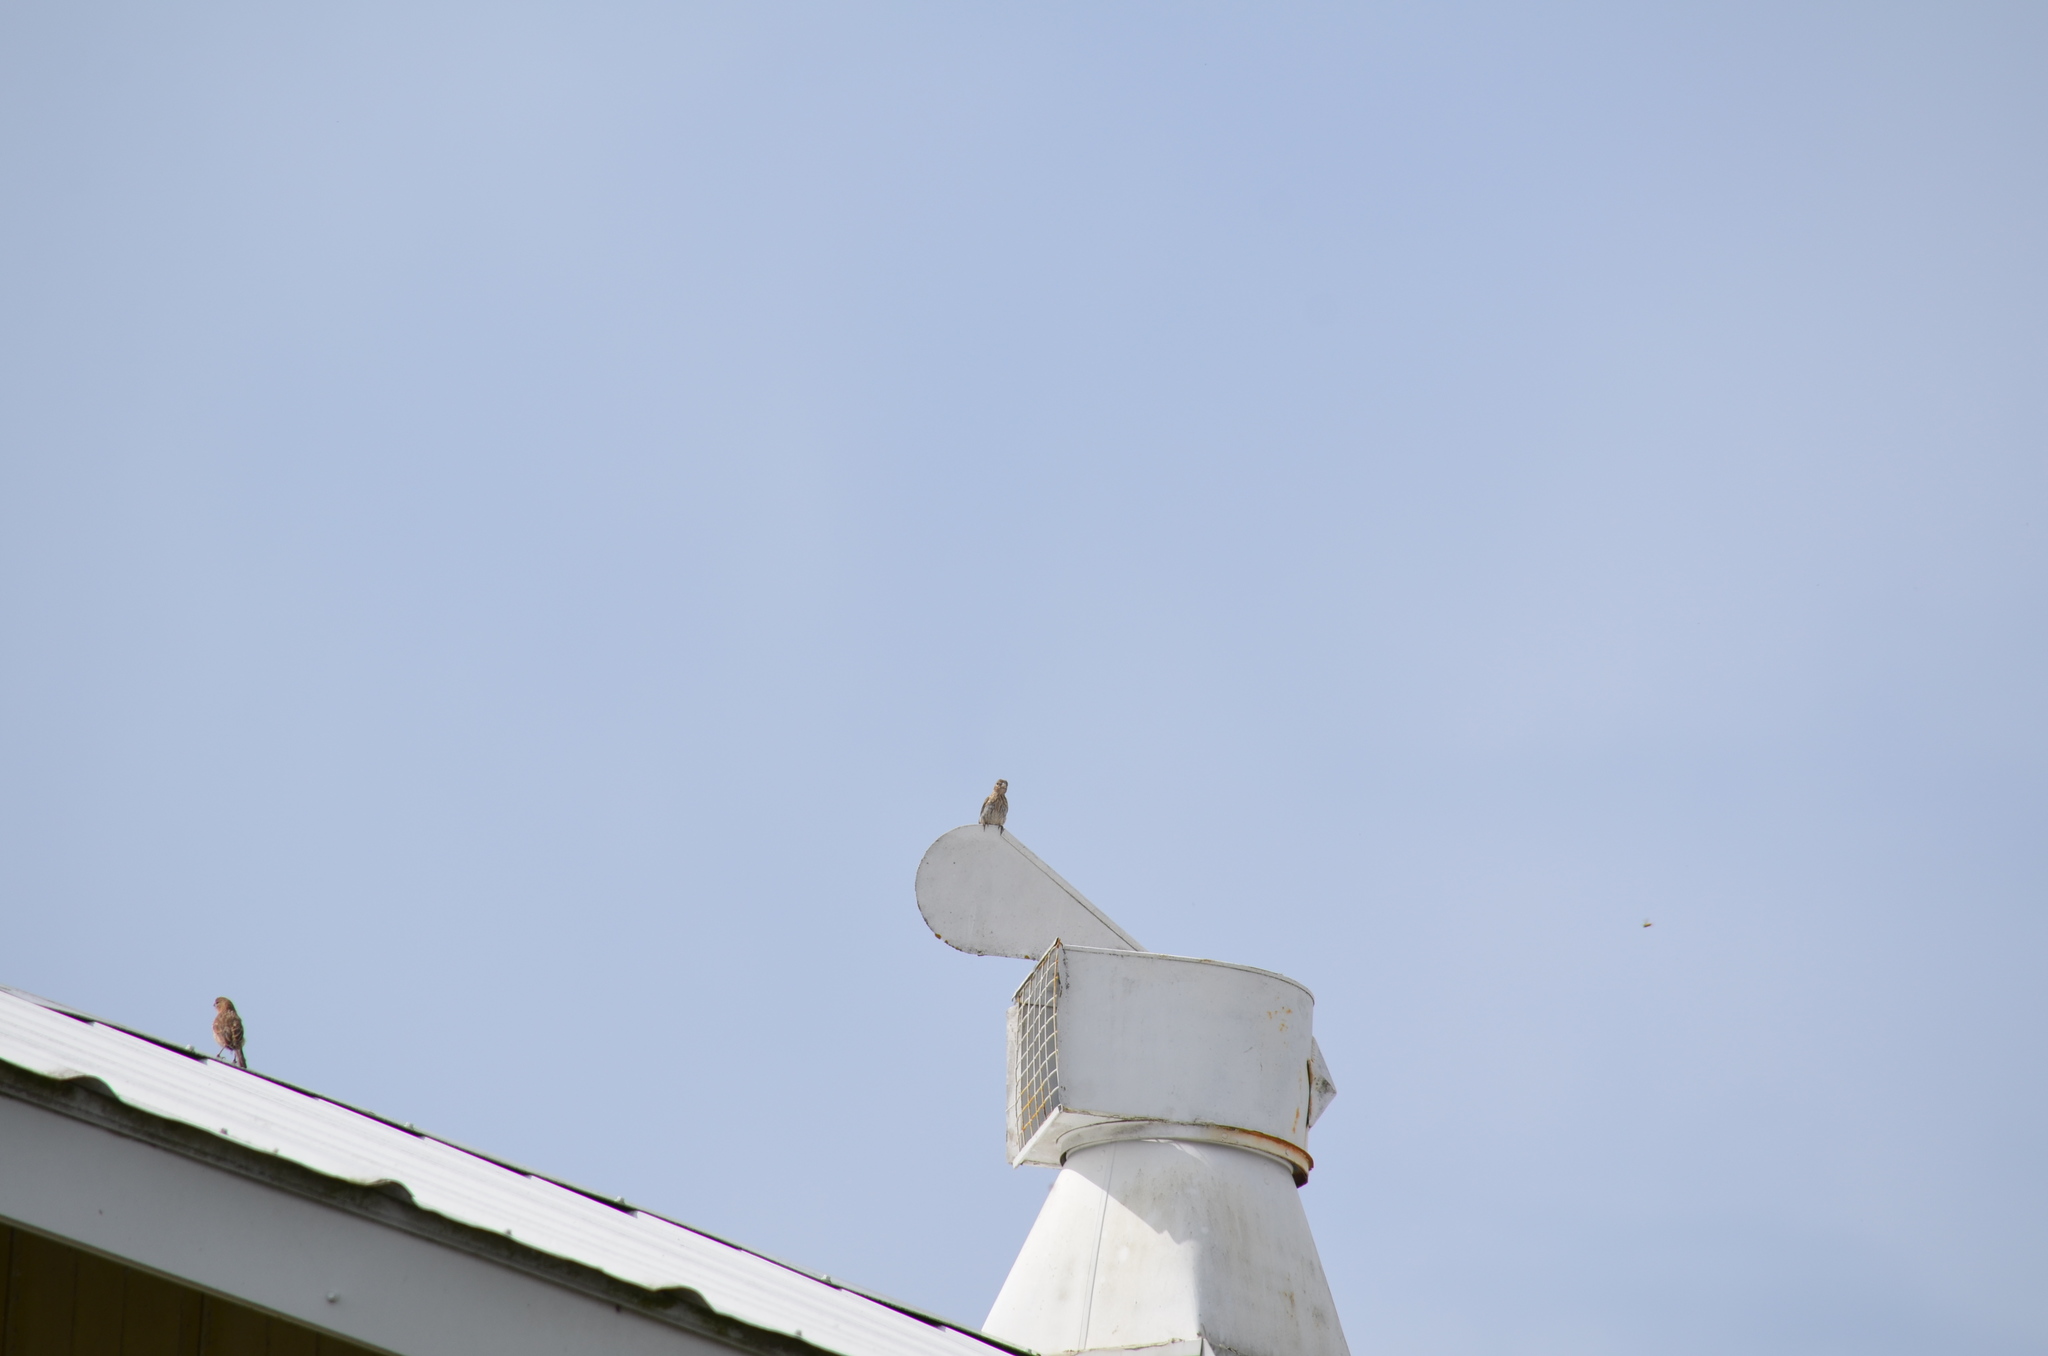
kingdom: Animalia
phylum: Chordata
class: Aves
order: Passeriformes
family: Fringillidae
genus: Haemorhous
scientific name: Haemorhous mexicanus
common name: House finch
